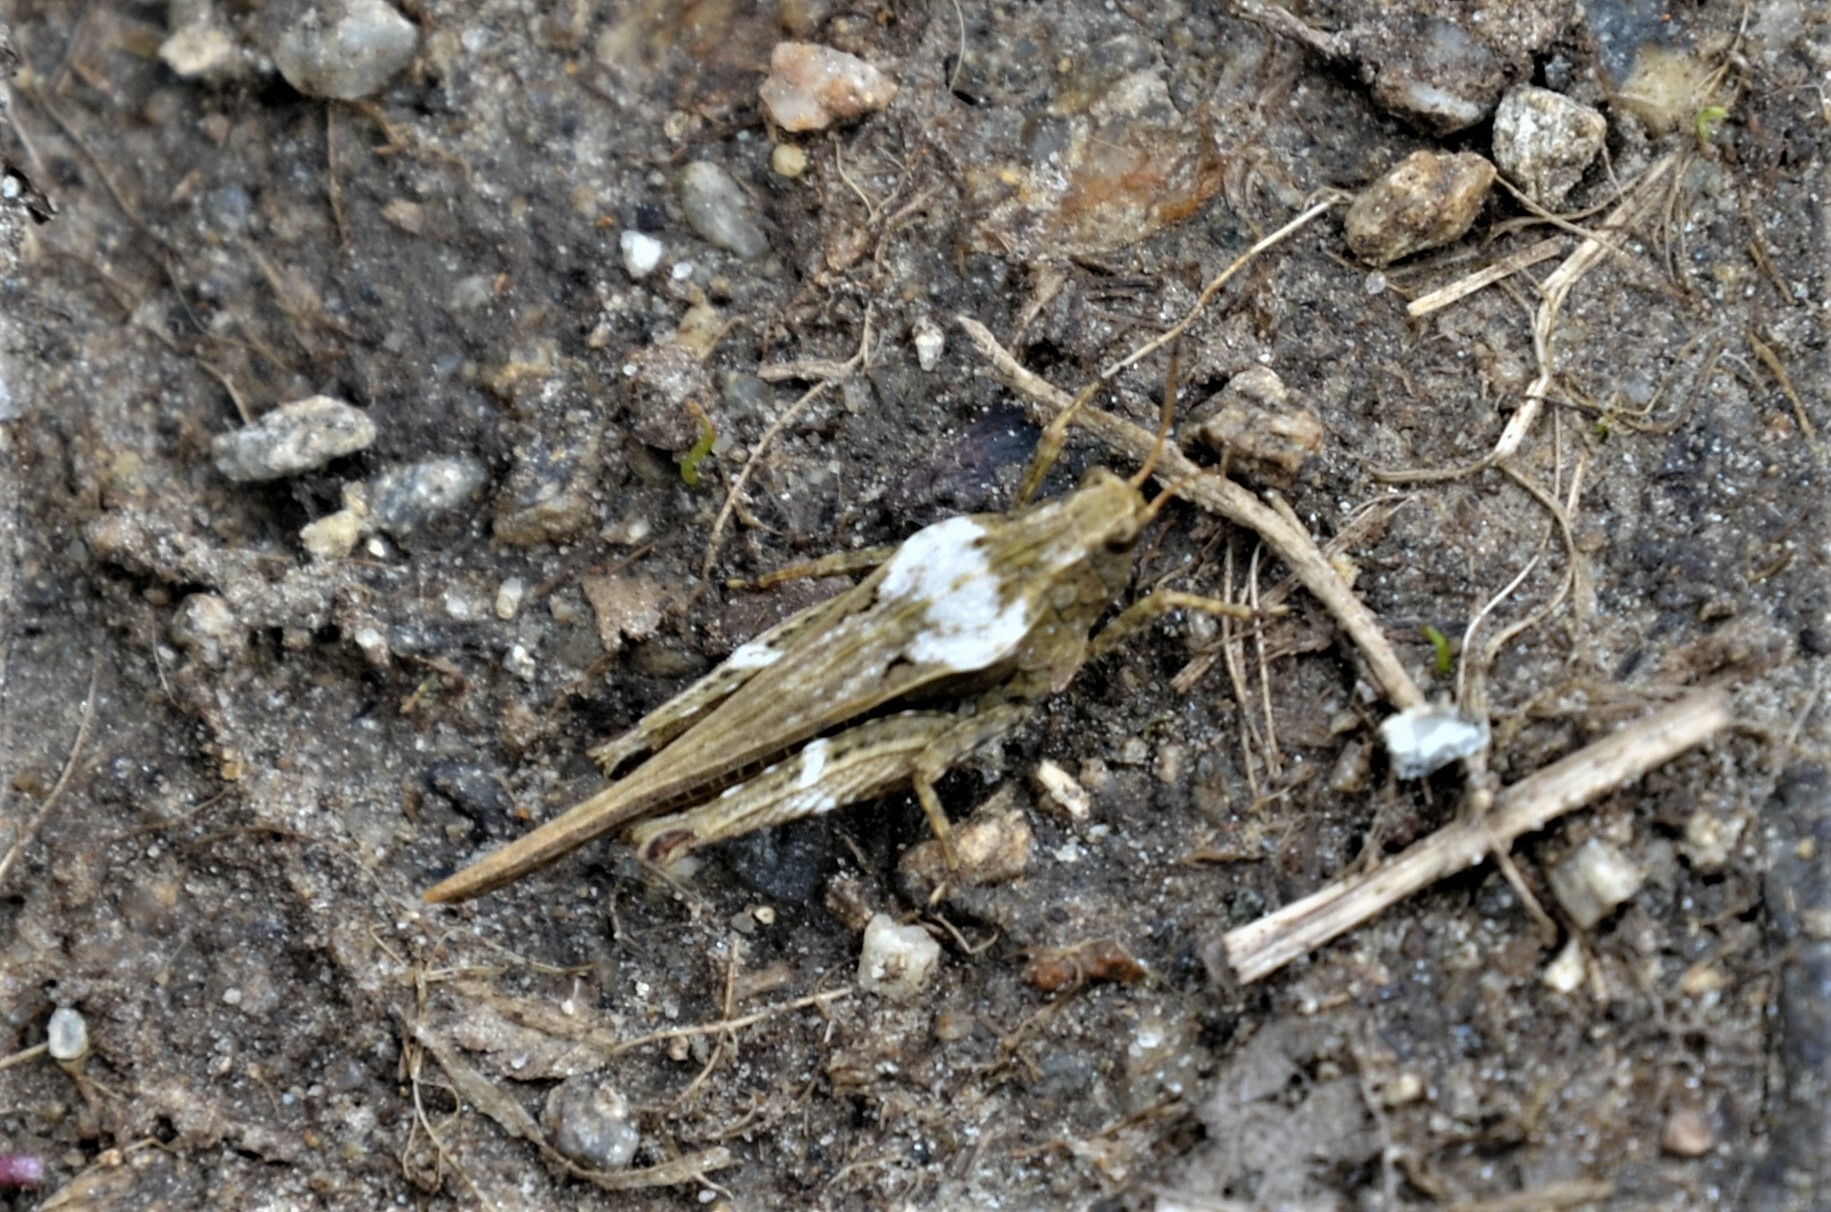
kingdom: Animalia
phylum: Arthropoda
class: Insecta
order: Orthoptera
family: Tetrigidae
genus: Tetrix
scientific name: Tetrix subulata
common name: Slender ground-hopper
